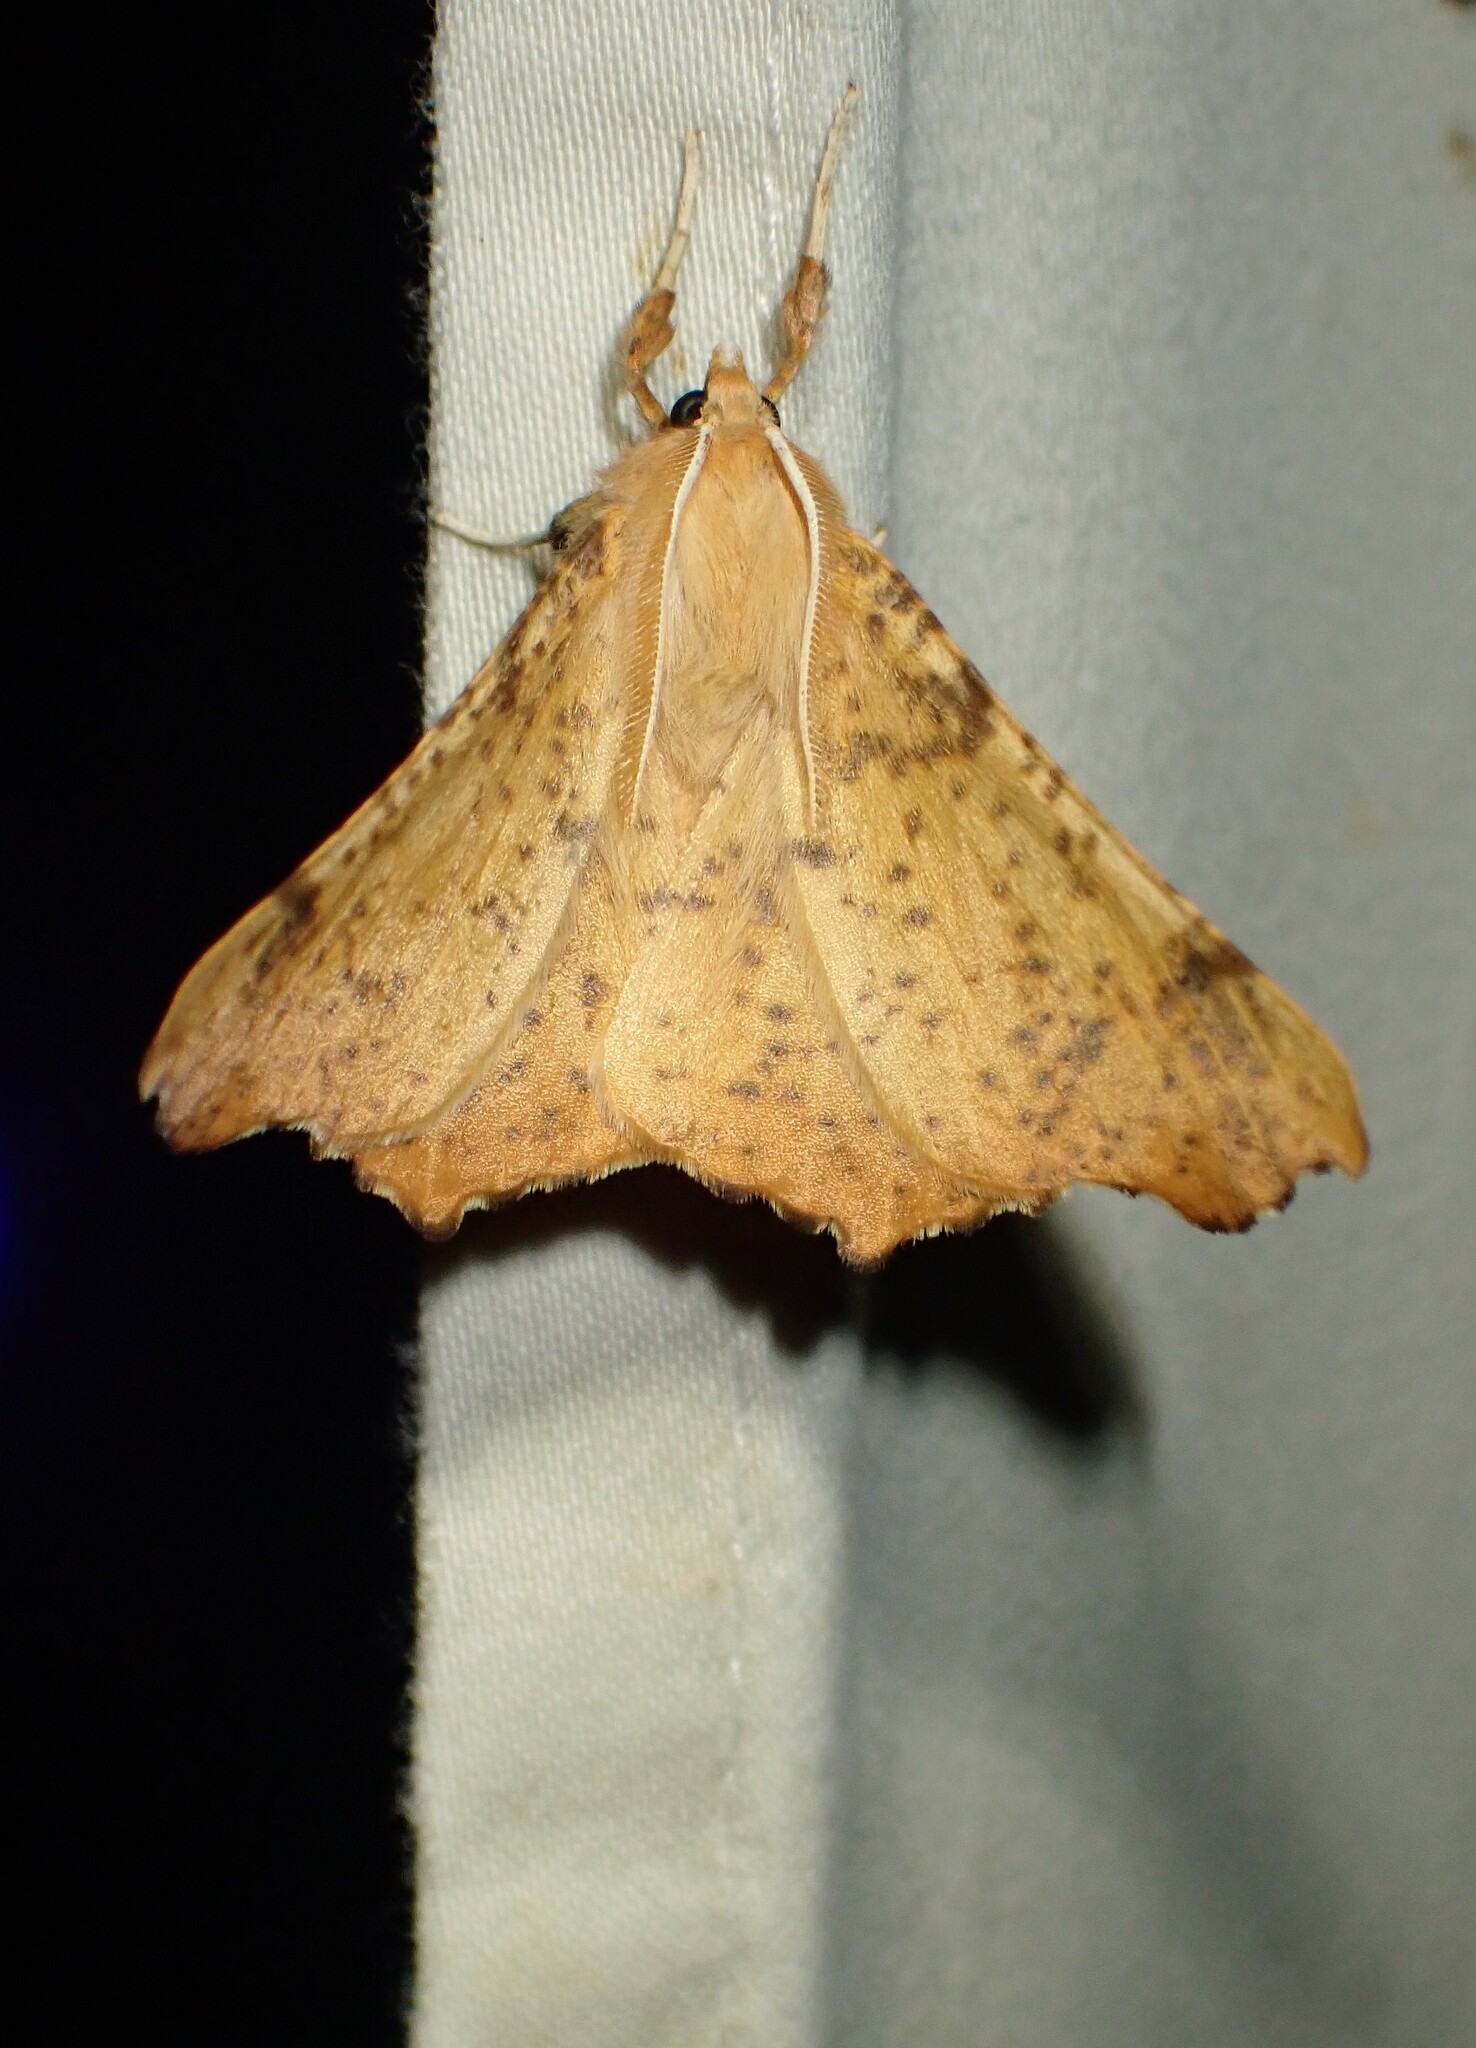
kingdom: Animalia
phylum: Arthropoda
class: Insecta
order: Lepidoptera
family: Geometridae
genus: Ennomos
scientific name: Ennomos magnaria
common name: Maple spanworm
